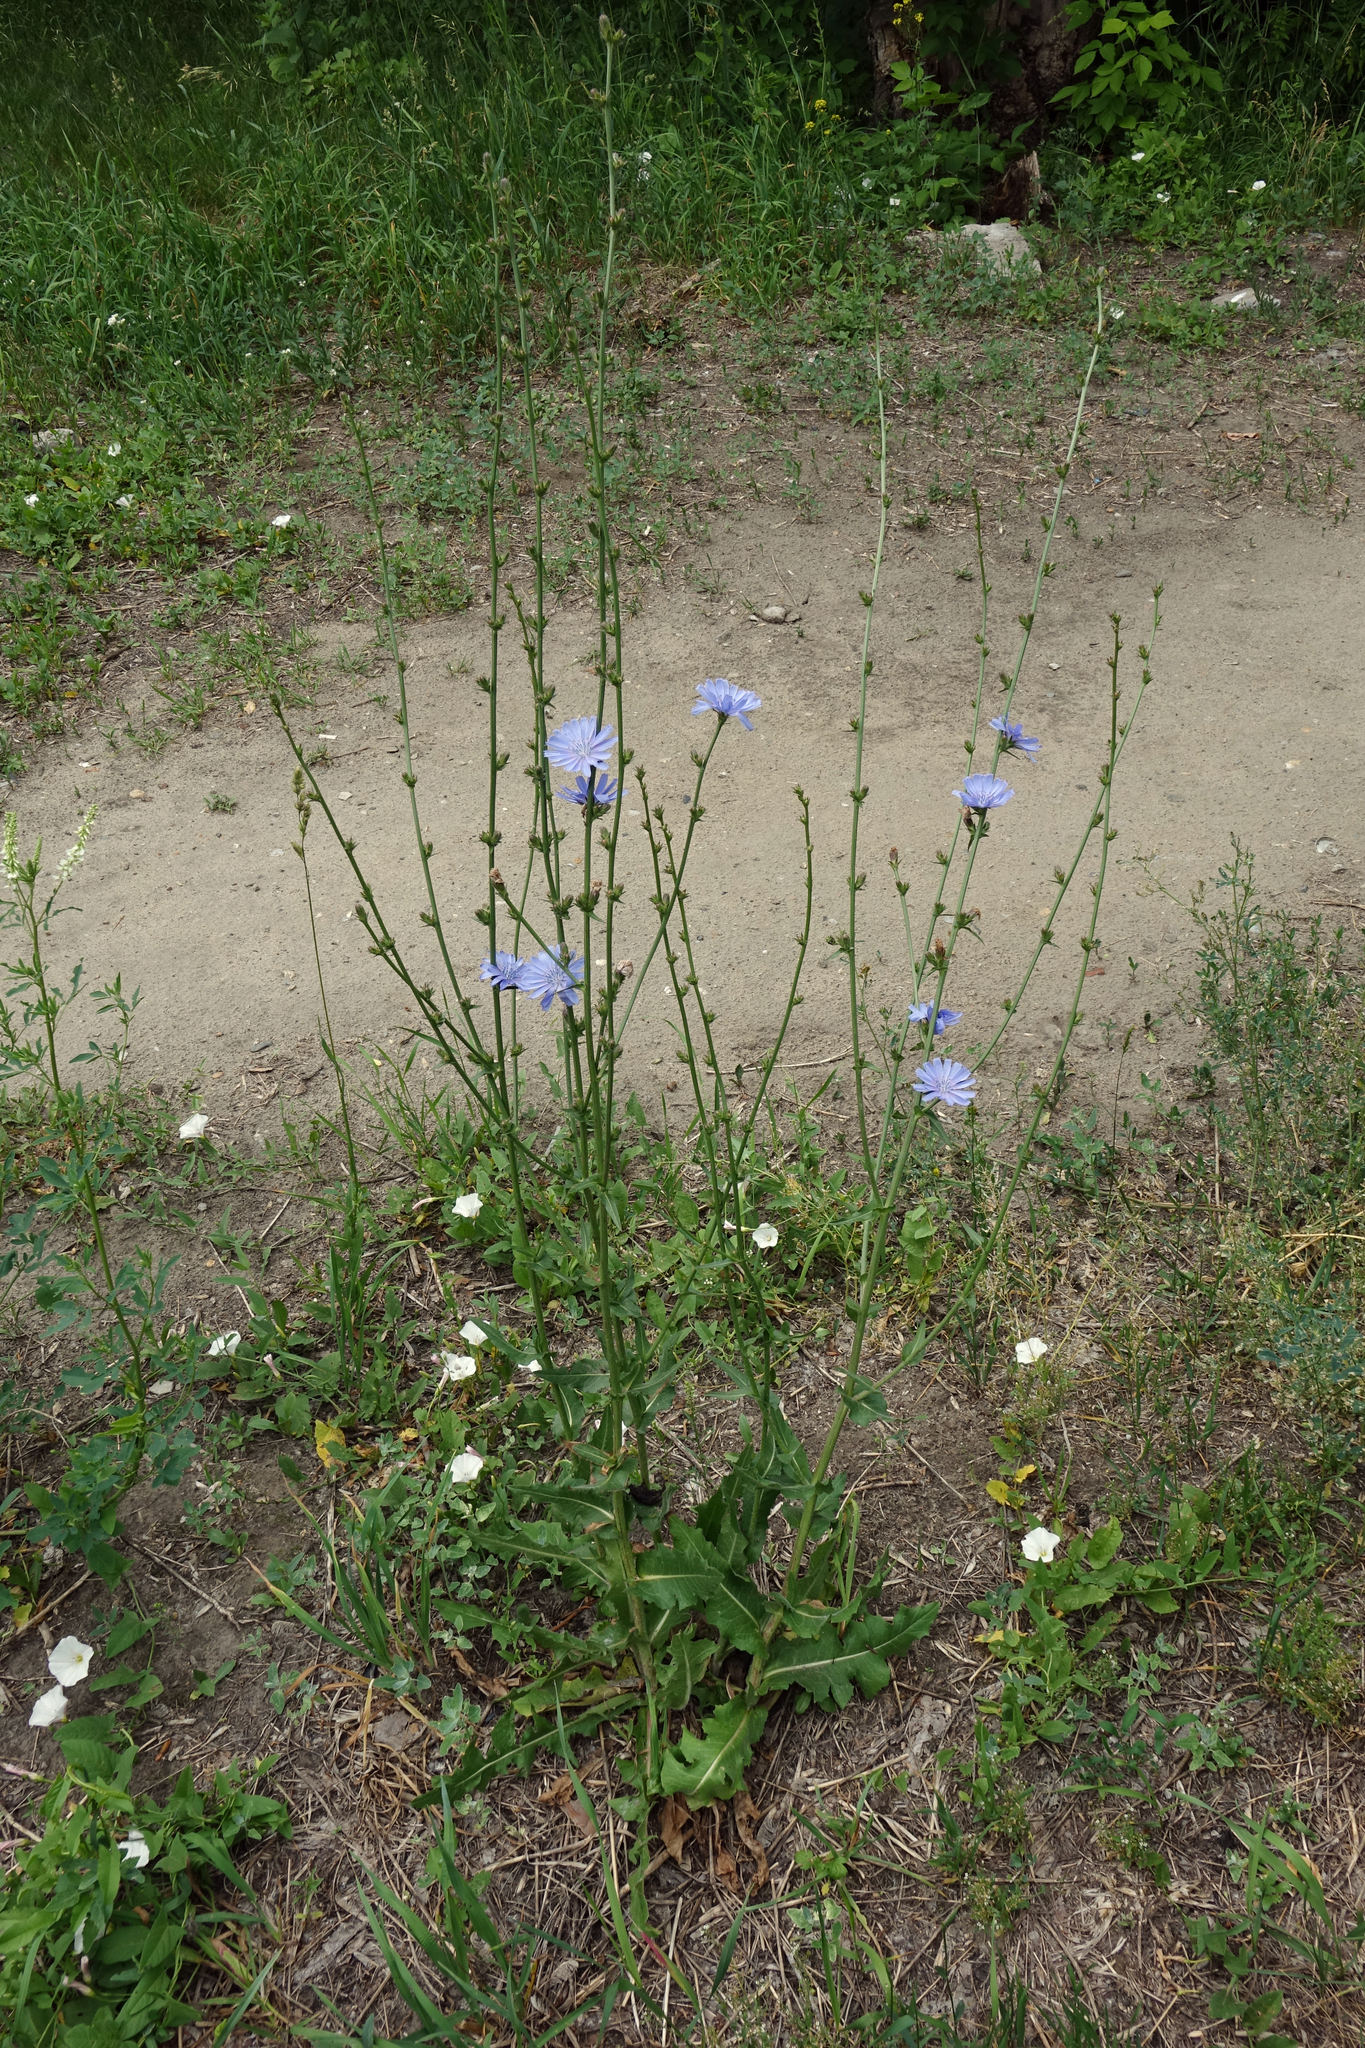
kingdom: Plantae
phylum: Tracheophyta
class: Magnoliopsida
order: Asterales
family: Asteraceae
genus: Cichorium
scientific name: Cichorium intybus
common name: Chicory
